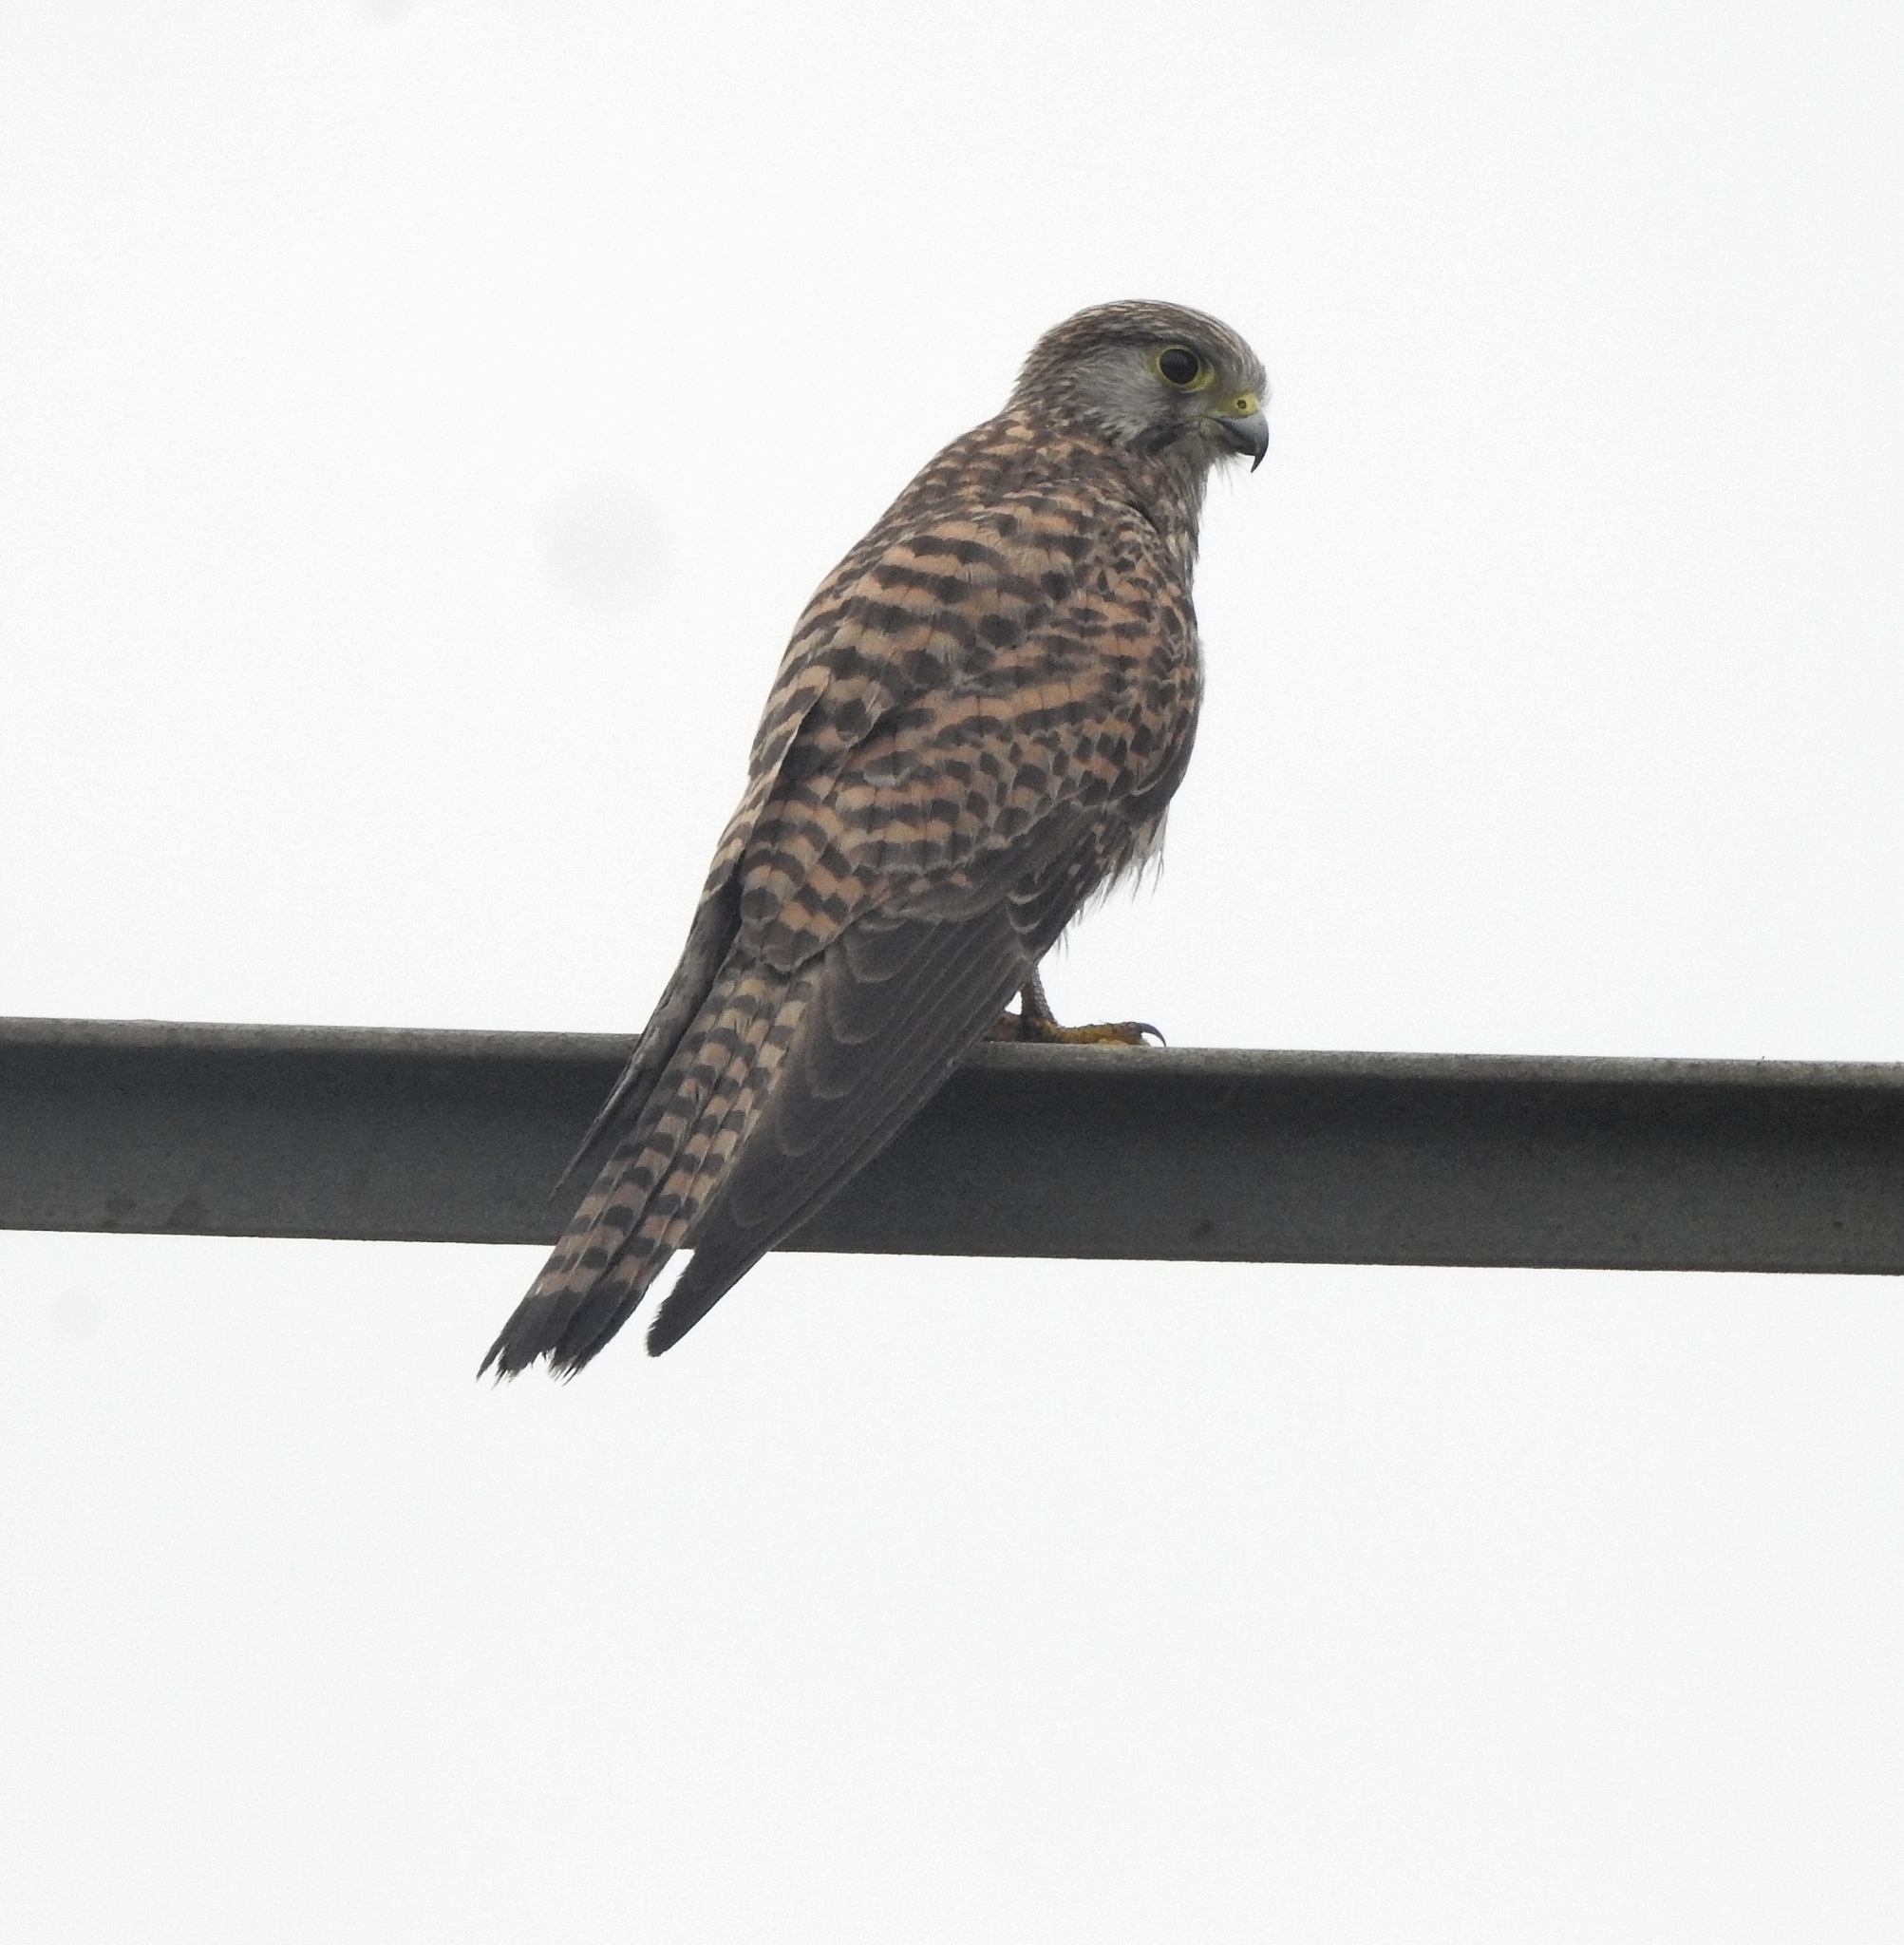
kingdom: Animalia
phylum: Chordata
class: Aves
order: Falconiformes
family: Falconidae
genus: Falco
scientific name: Falco tinnunculus
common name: Common kestrel
